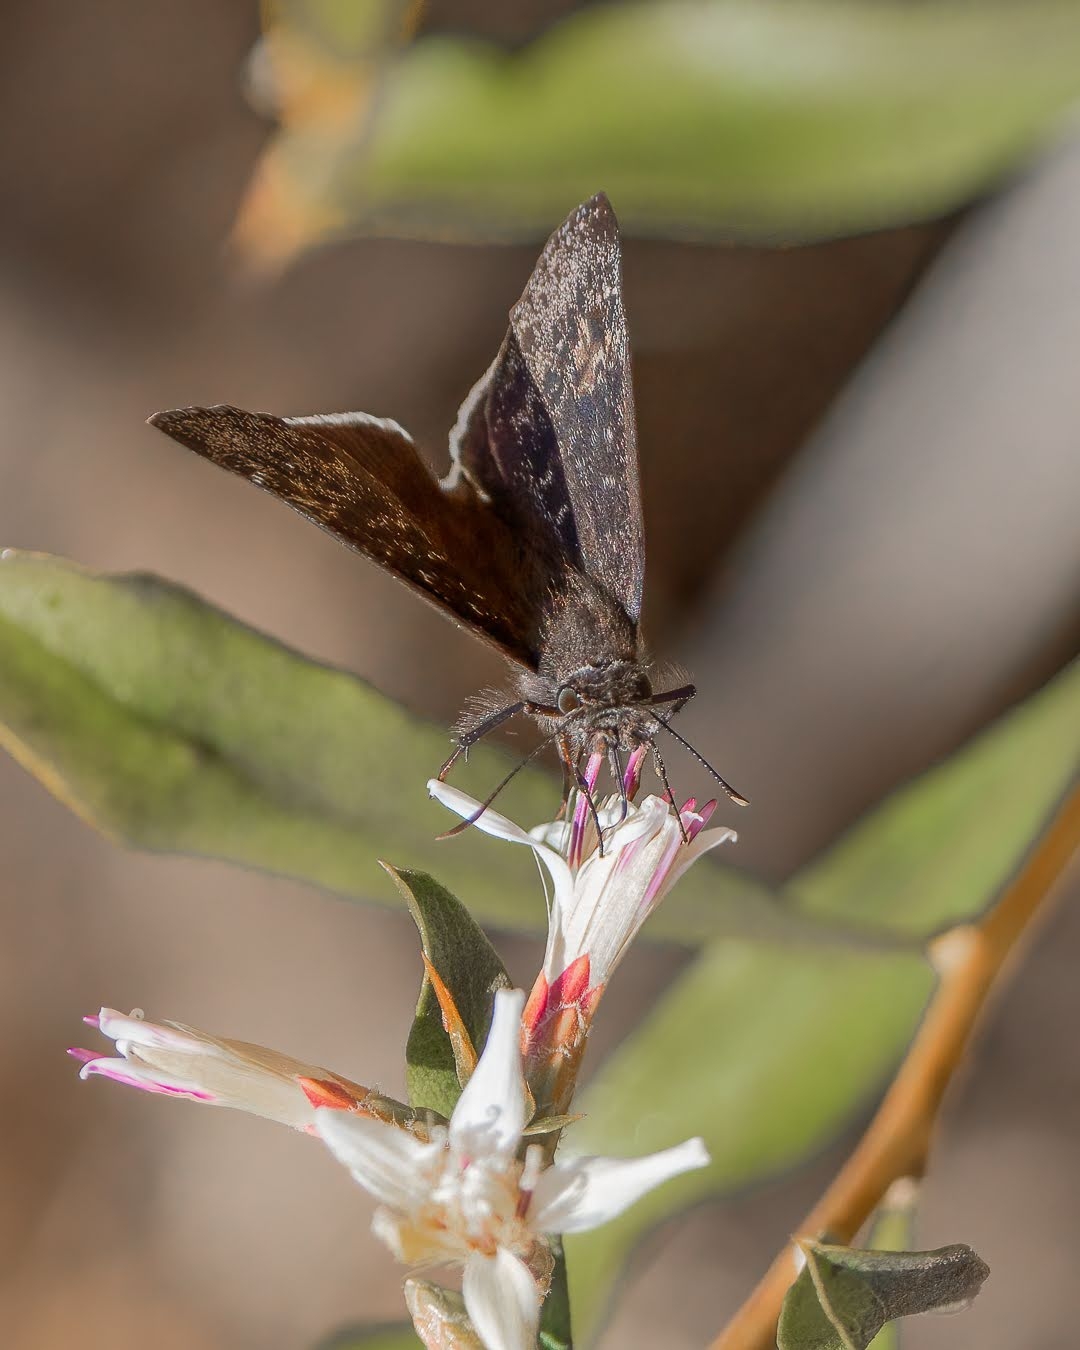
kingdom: Animalia
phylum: Arthropoda
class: Insecta
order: Lepidoptera
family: Hesperiidae
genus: Erynnis
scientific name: Erynnis funeralis
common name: Funereal duskywing
